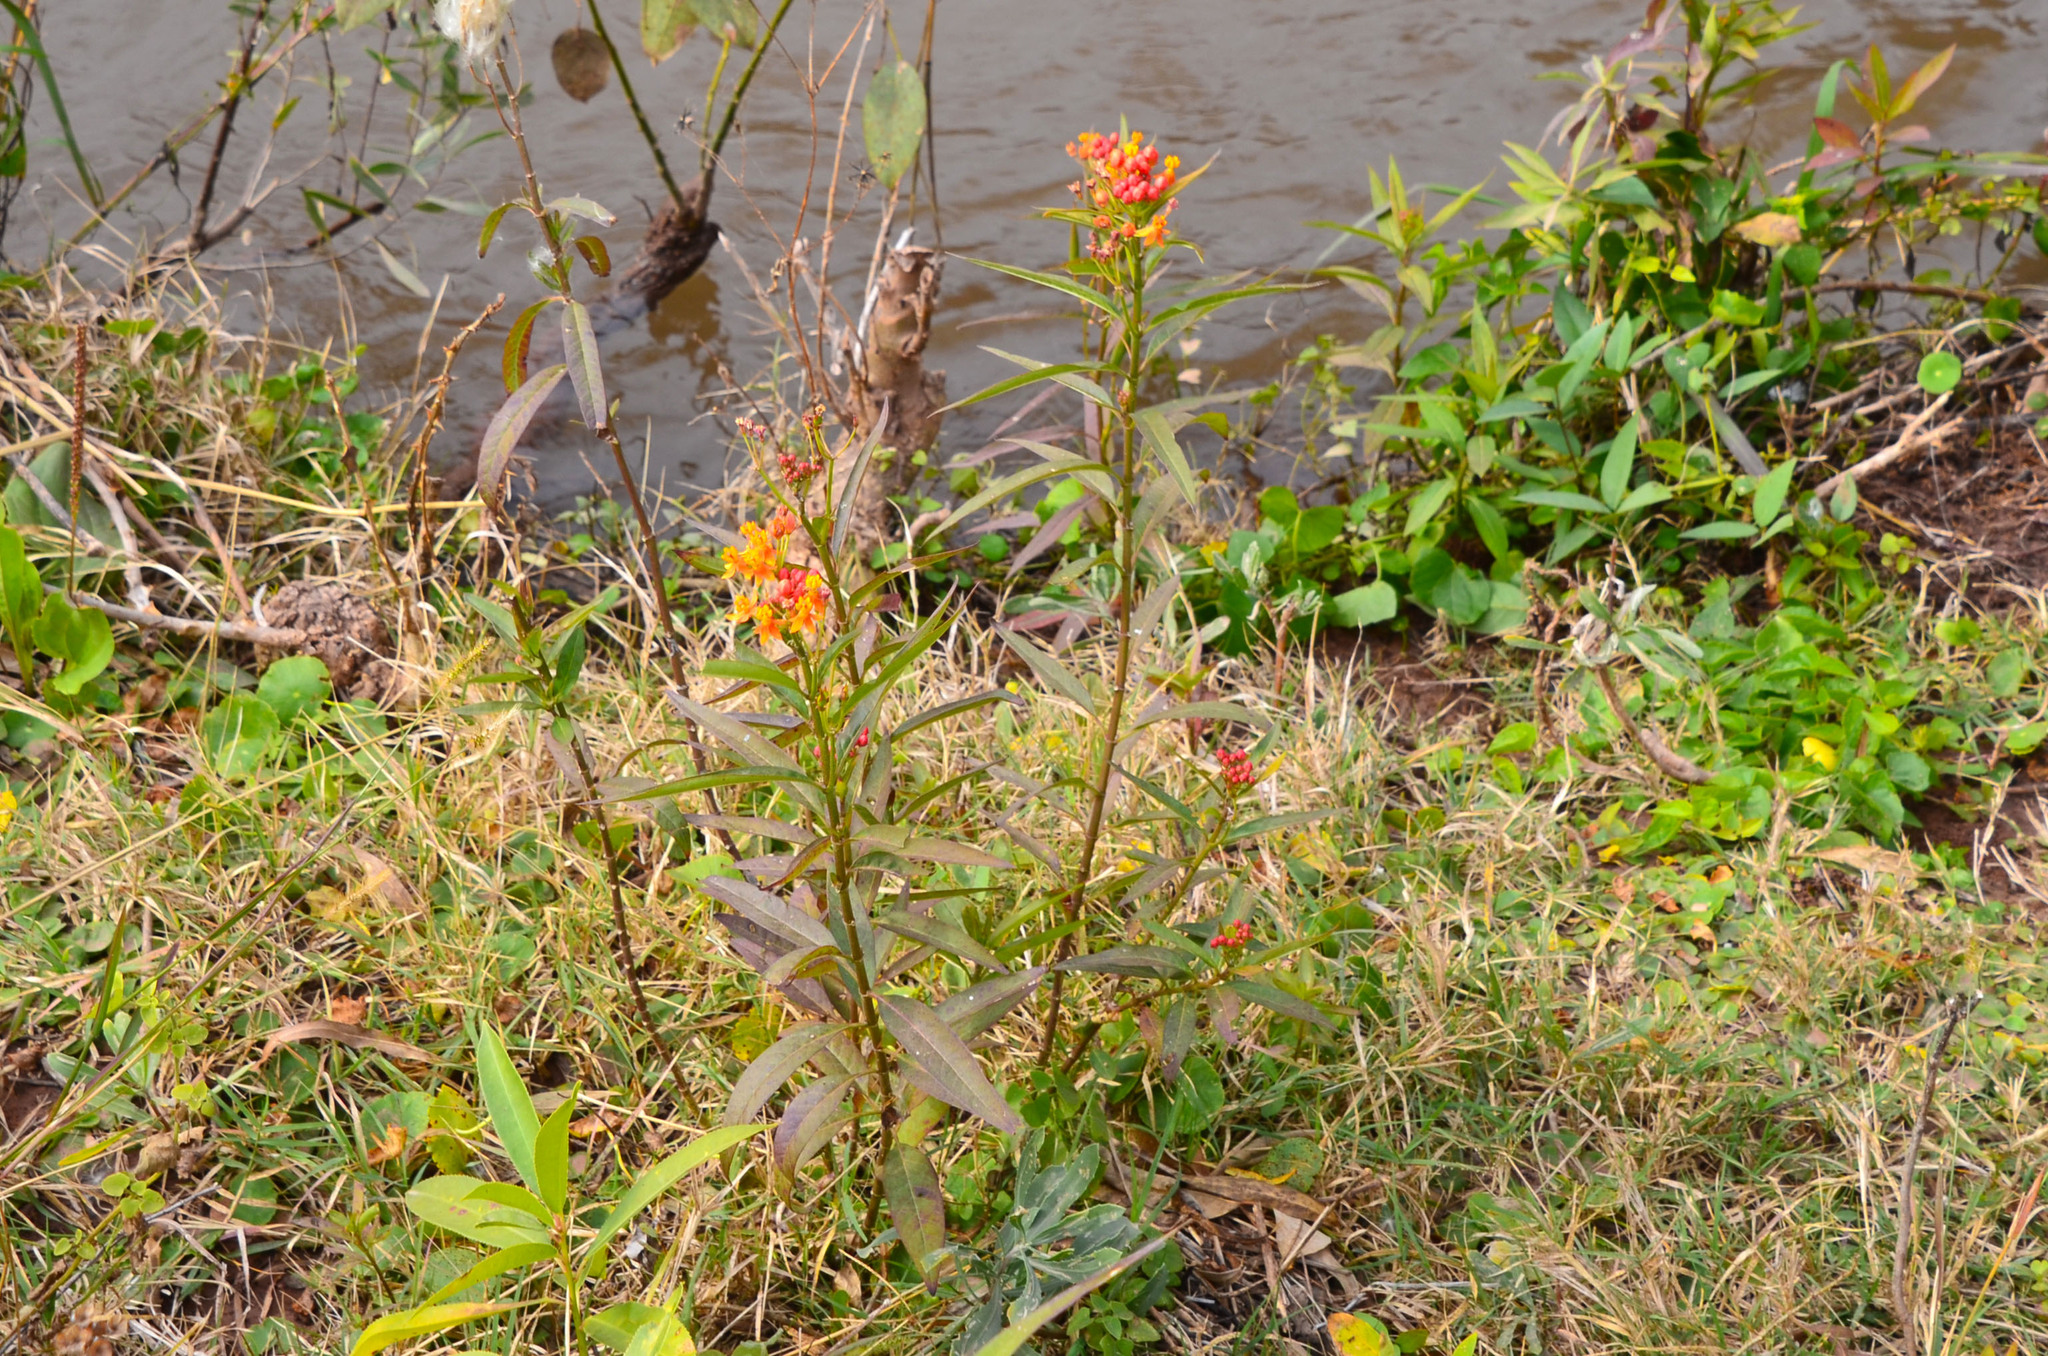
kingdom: Plantae
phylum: Tracheophyta
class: Magnoliopsida
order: Gentianales
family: Apocynaceae
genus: Asclepias
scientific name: Asclepias curassavica
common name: Bloodflower
